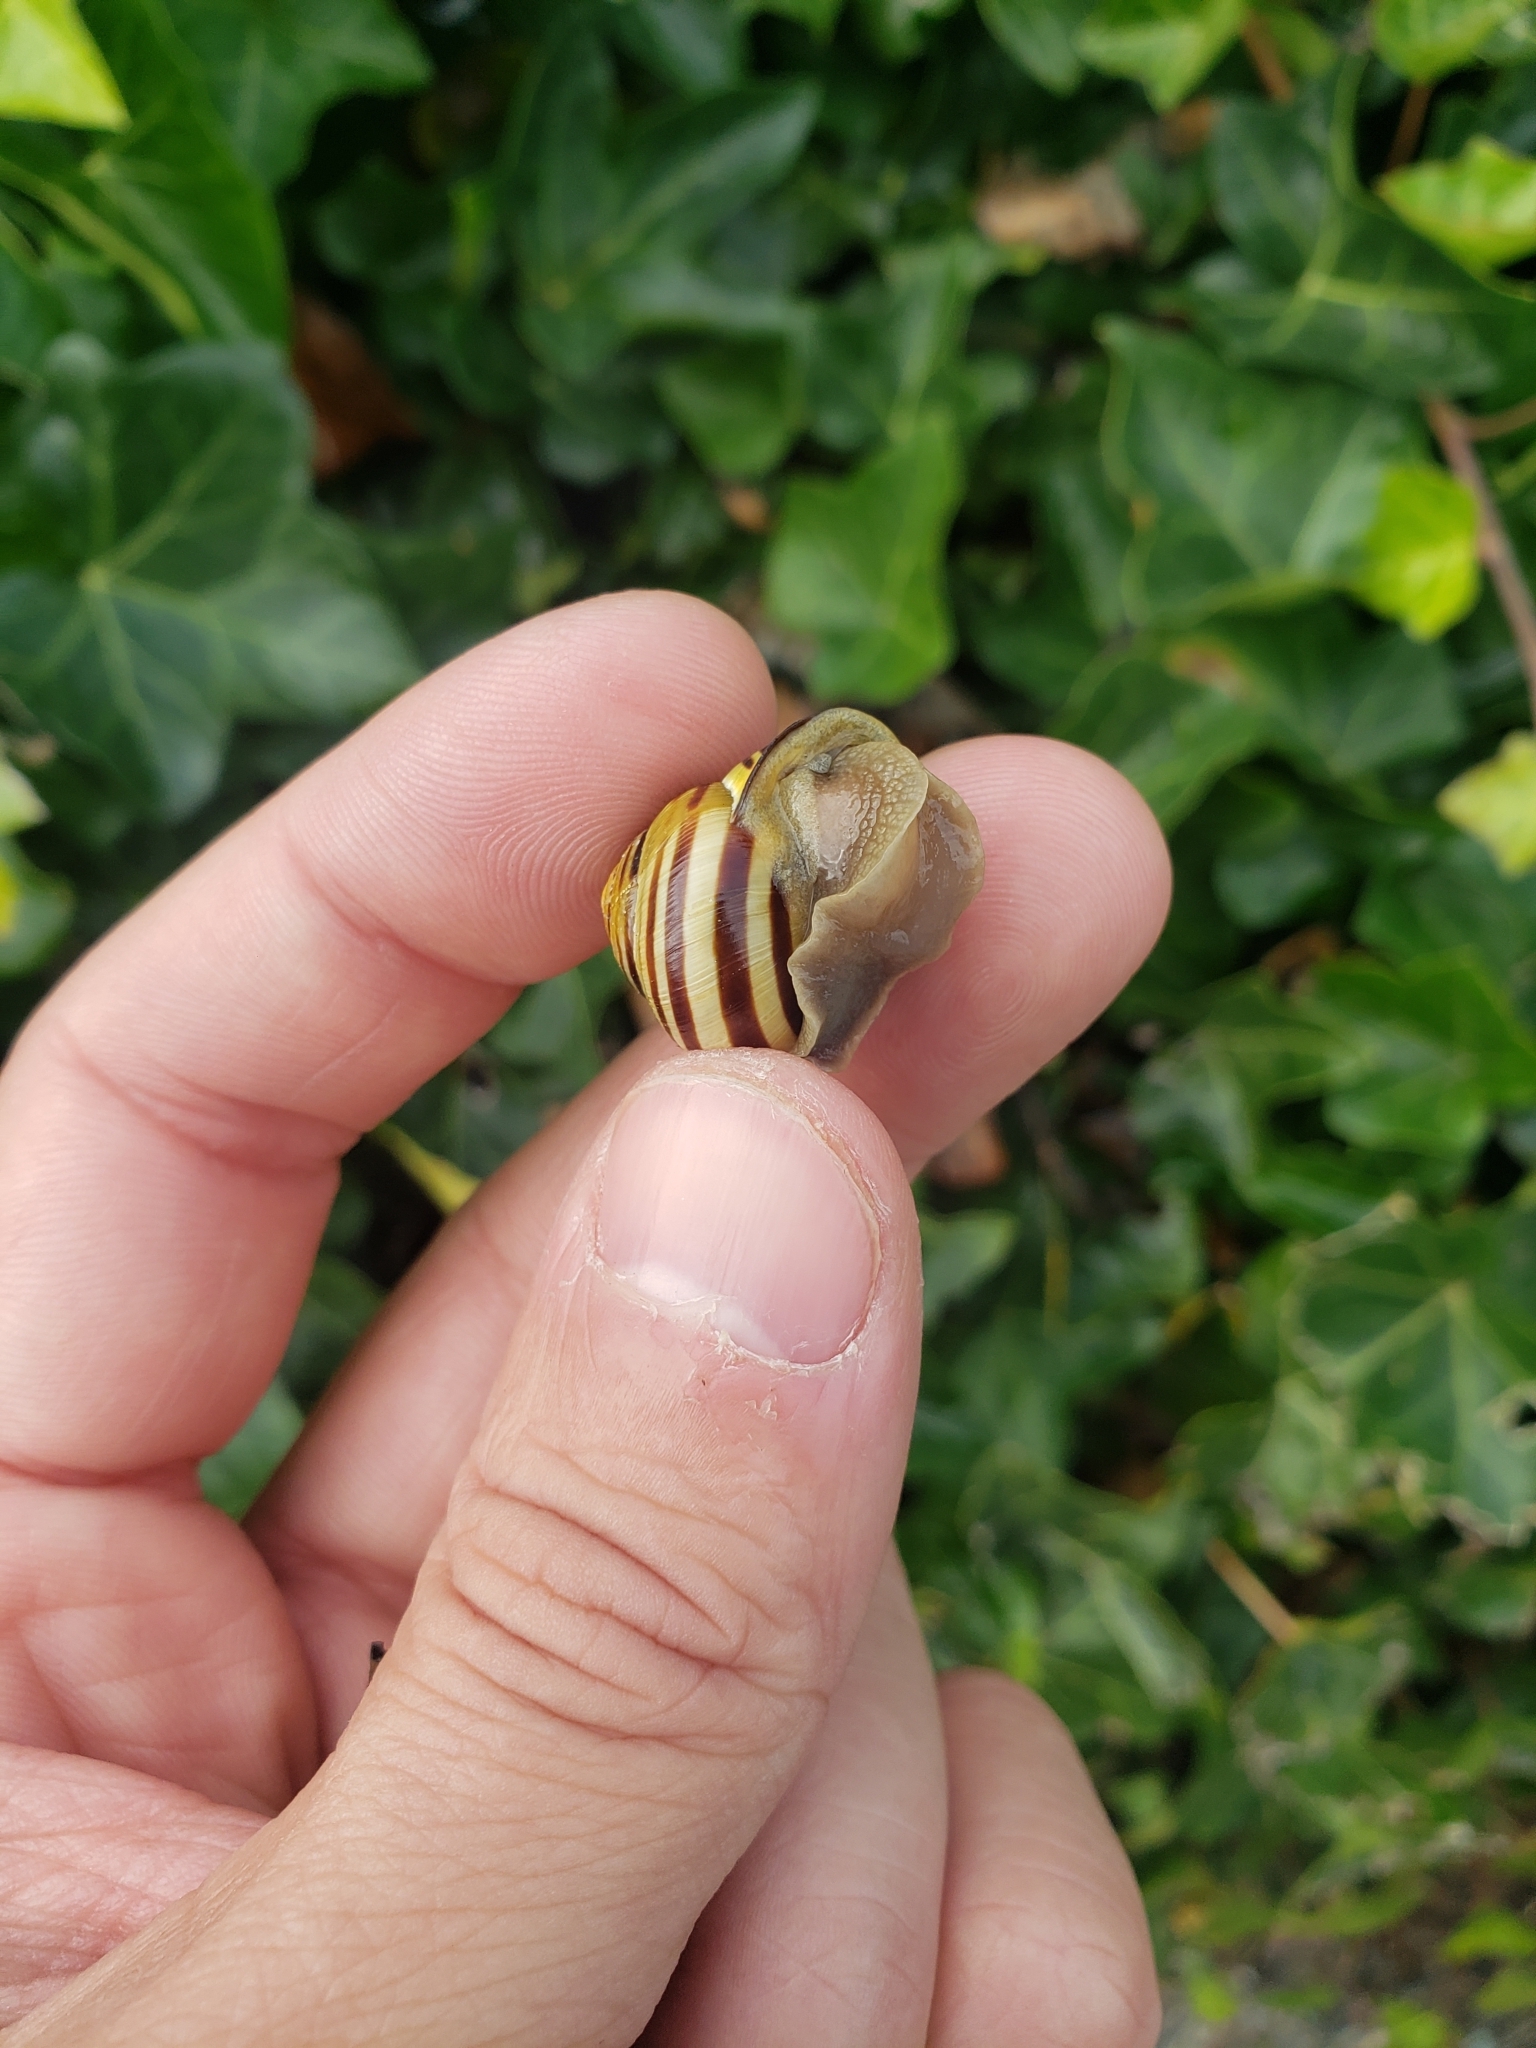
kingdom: Animalia
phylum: Mollusca
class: Gastropoda
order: Stylommatophora
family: Helicidae
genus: Cepaea
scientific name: Cepaea nemoralis
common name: Grovesnail
